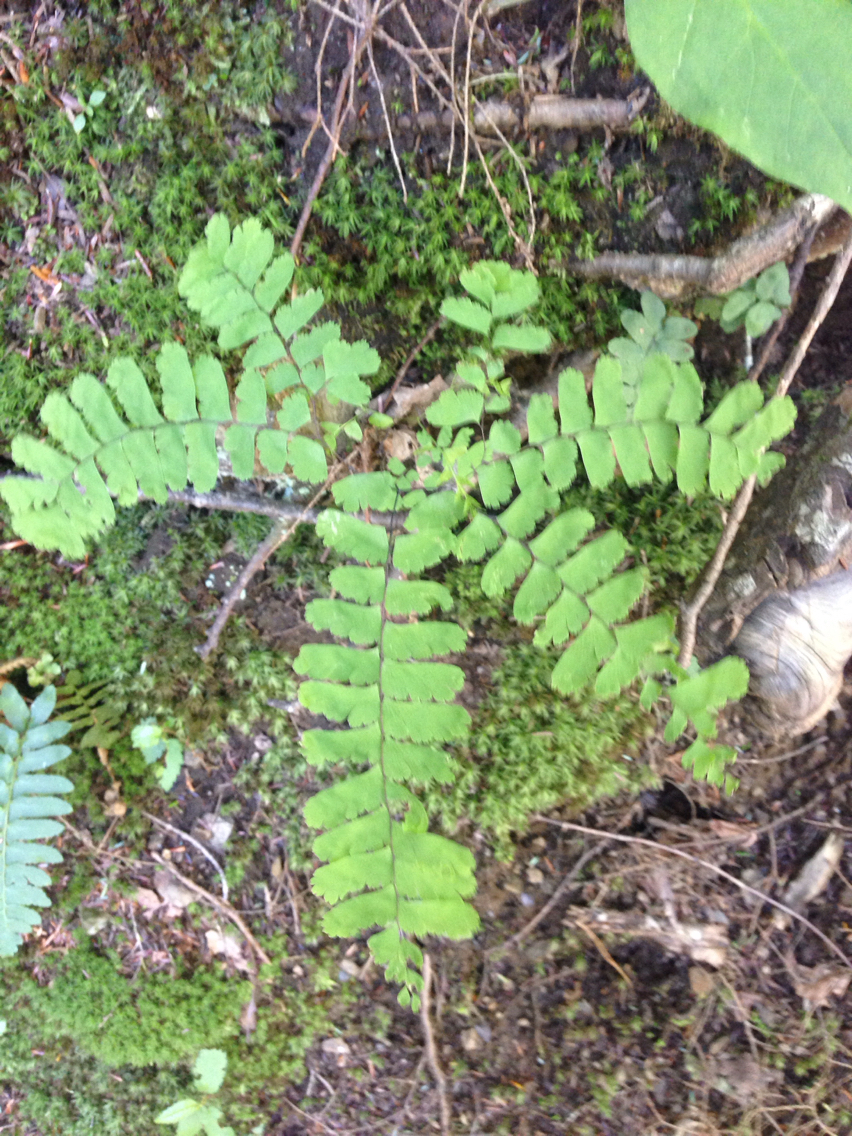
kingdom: Plantae
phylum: Tracheophyta
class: Polypodiopsida
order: Polypodiales
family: Pteridaceae
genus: Adiantum
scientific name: Adiantum pedatum
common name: Five-finger fern
